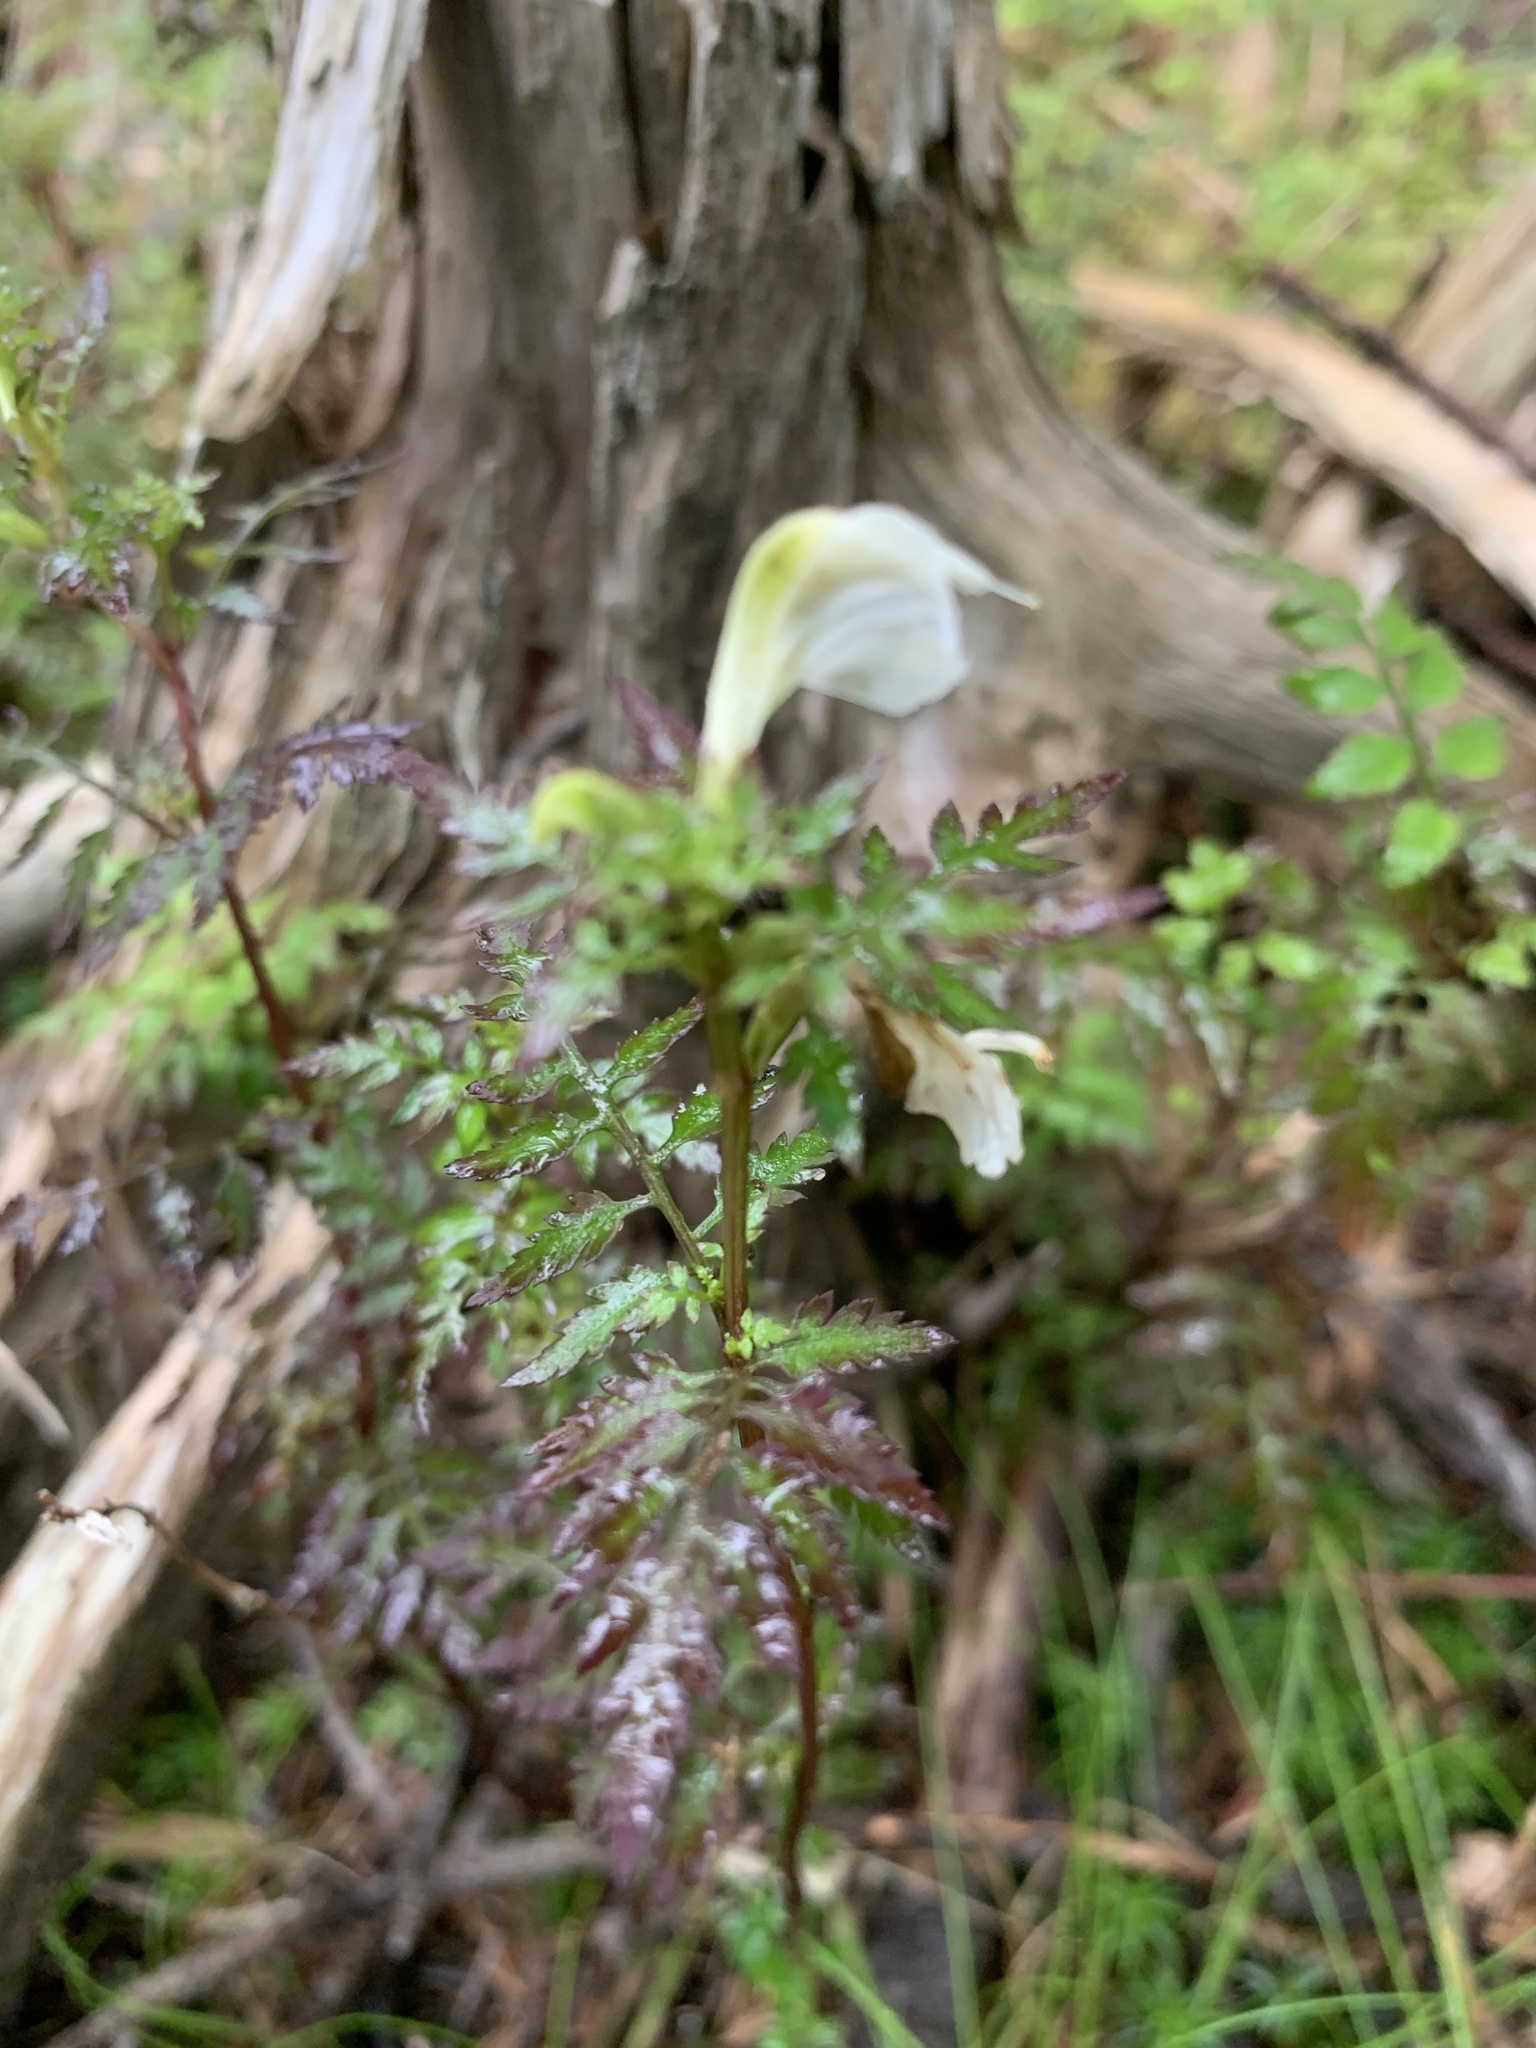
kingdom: Plantae
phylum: Tracheophyta
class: Magnoliopsida
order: Lamiales
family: Orobanchaceae
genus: Pedicularis
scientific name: Pedicularis keiskei
